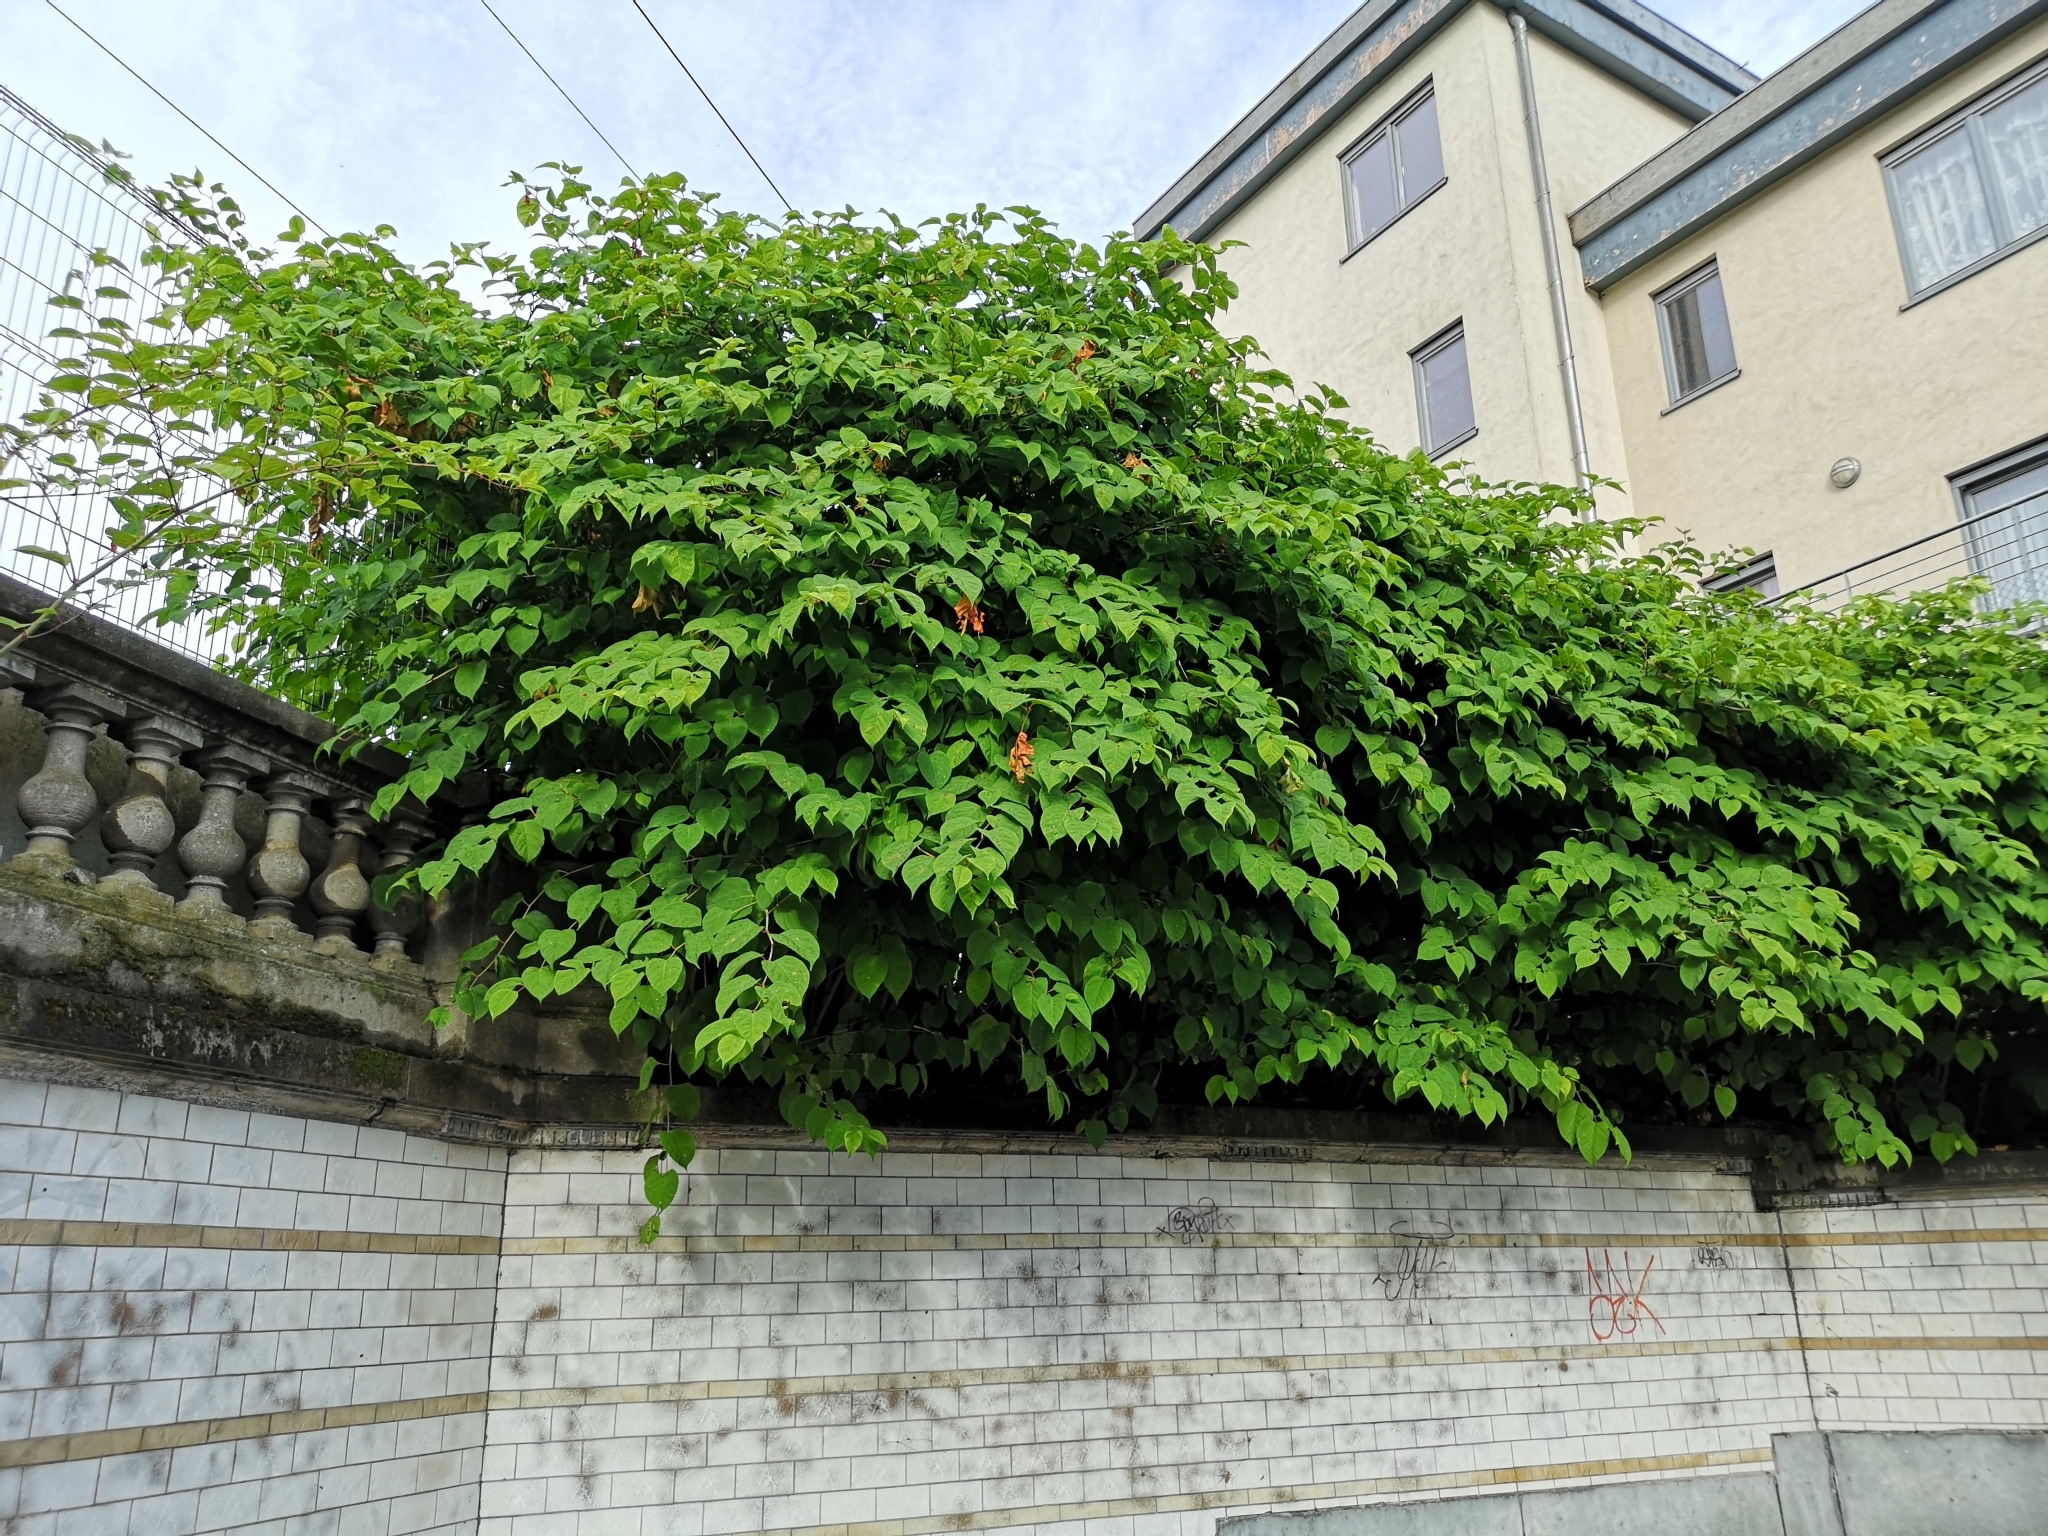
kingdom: Plantae
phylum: Tracheophyta
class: Magnoliopsida
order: Caryophyllales
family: Polygonaceae
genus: Reynoutria
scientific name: Reynoutria japonica
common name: Japanese knotweed
